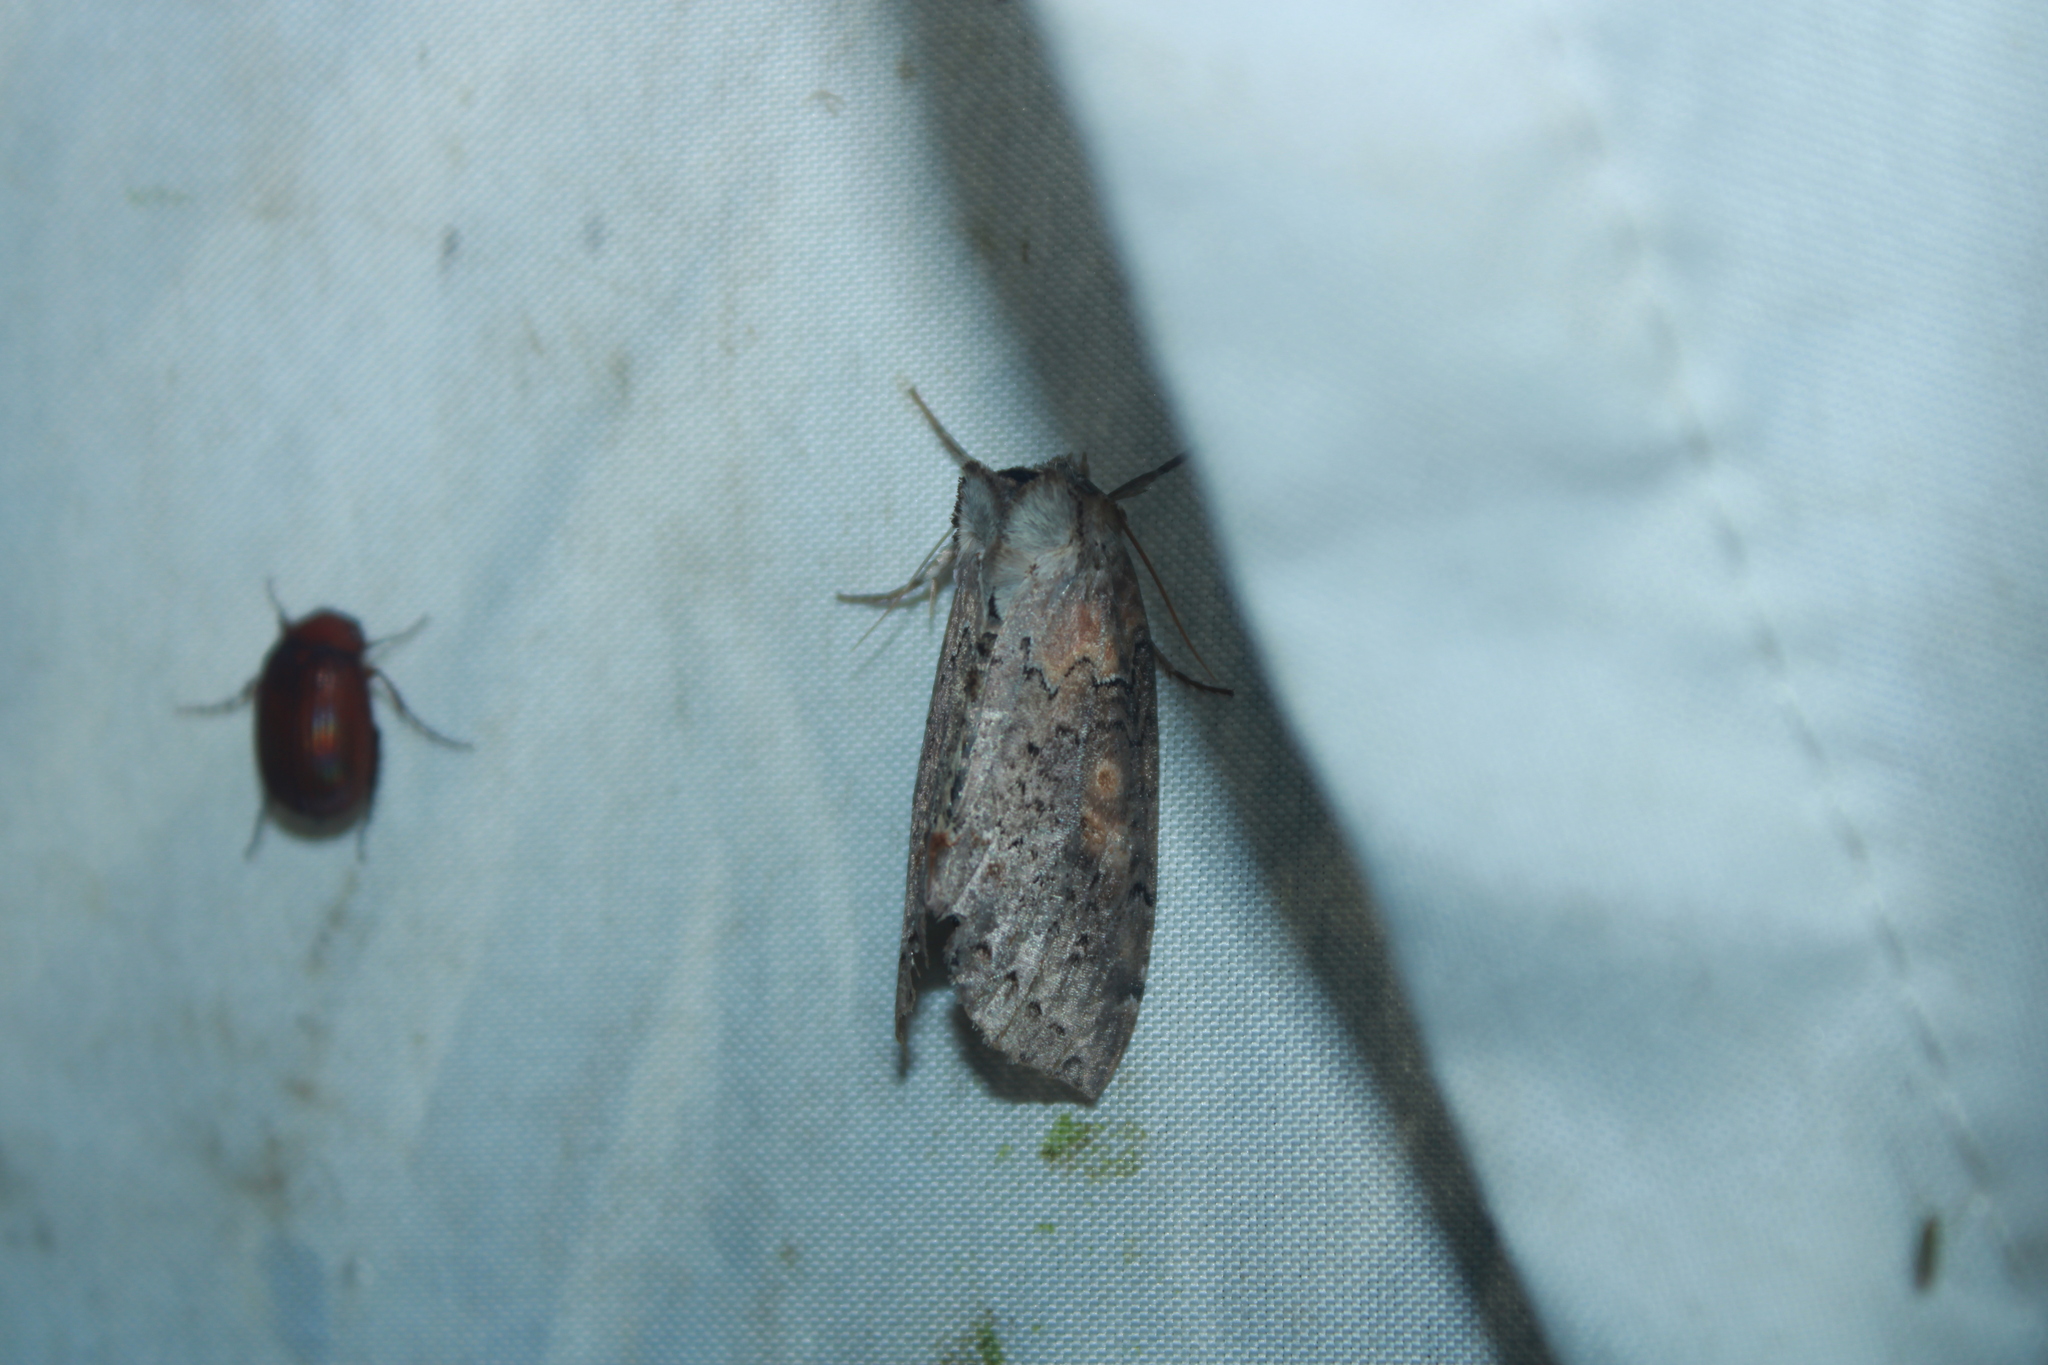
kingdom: Animalia
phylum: Arthropoda
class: Insecta
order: Lepidoptera
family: Drepanidae
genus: Pseudothyatira
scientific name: Pseudothyatira cymatophoroides
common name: Tufted thyatirid moth
